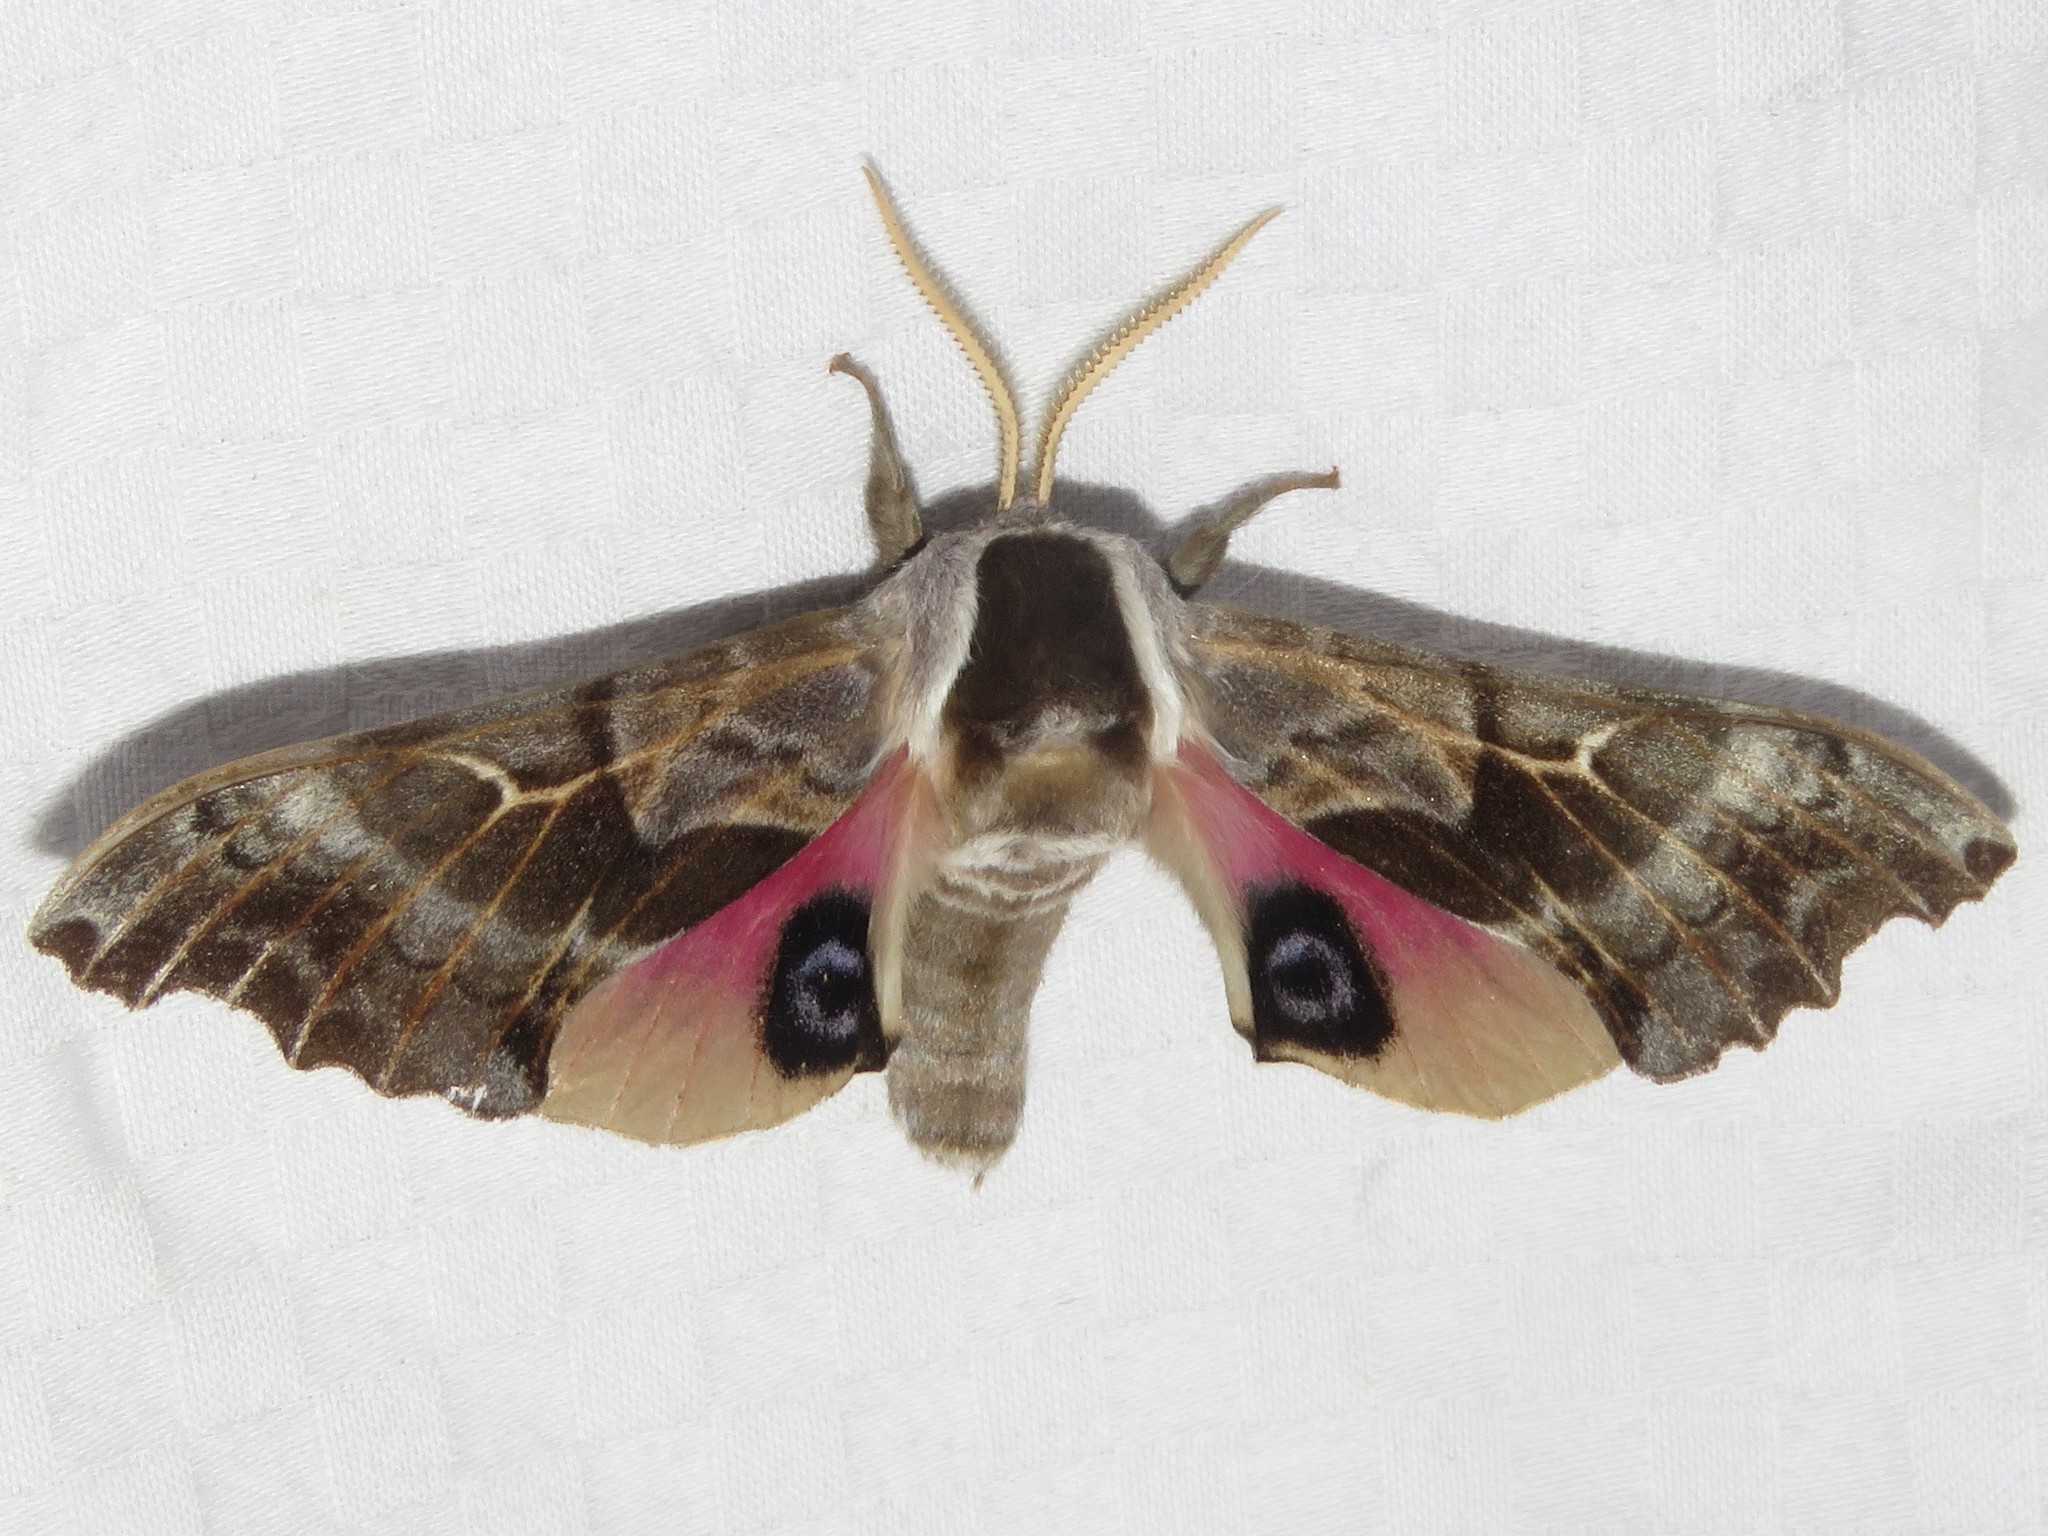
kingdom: Animalia
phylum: Arthropoda
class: Insecta
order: Lepidoptera
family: Sphingidae
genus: Smerinthus
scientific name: Smerinthus cerisyi
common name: Cerisy's sphinx moth
